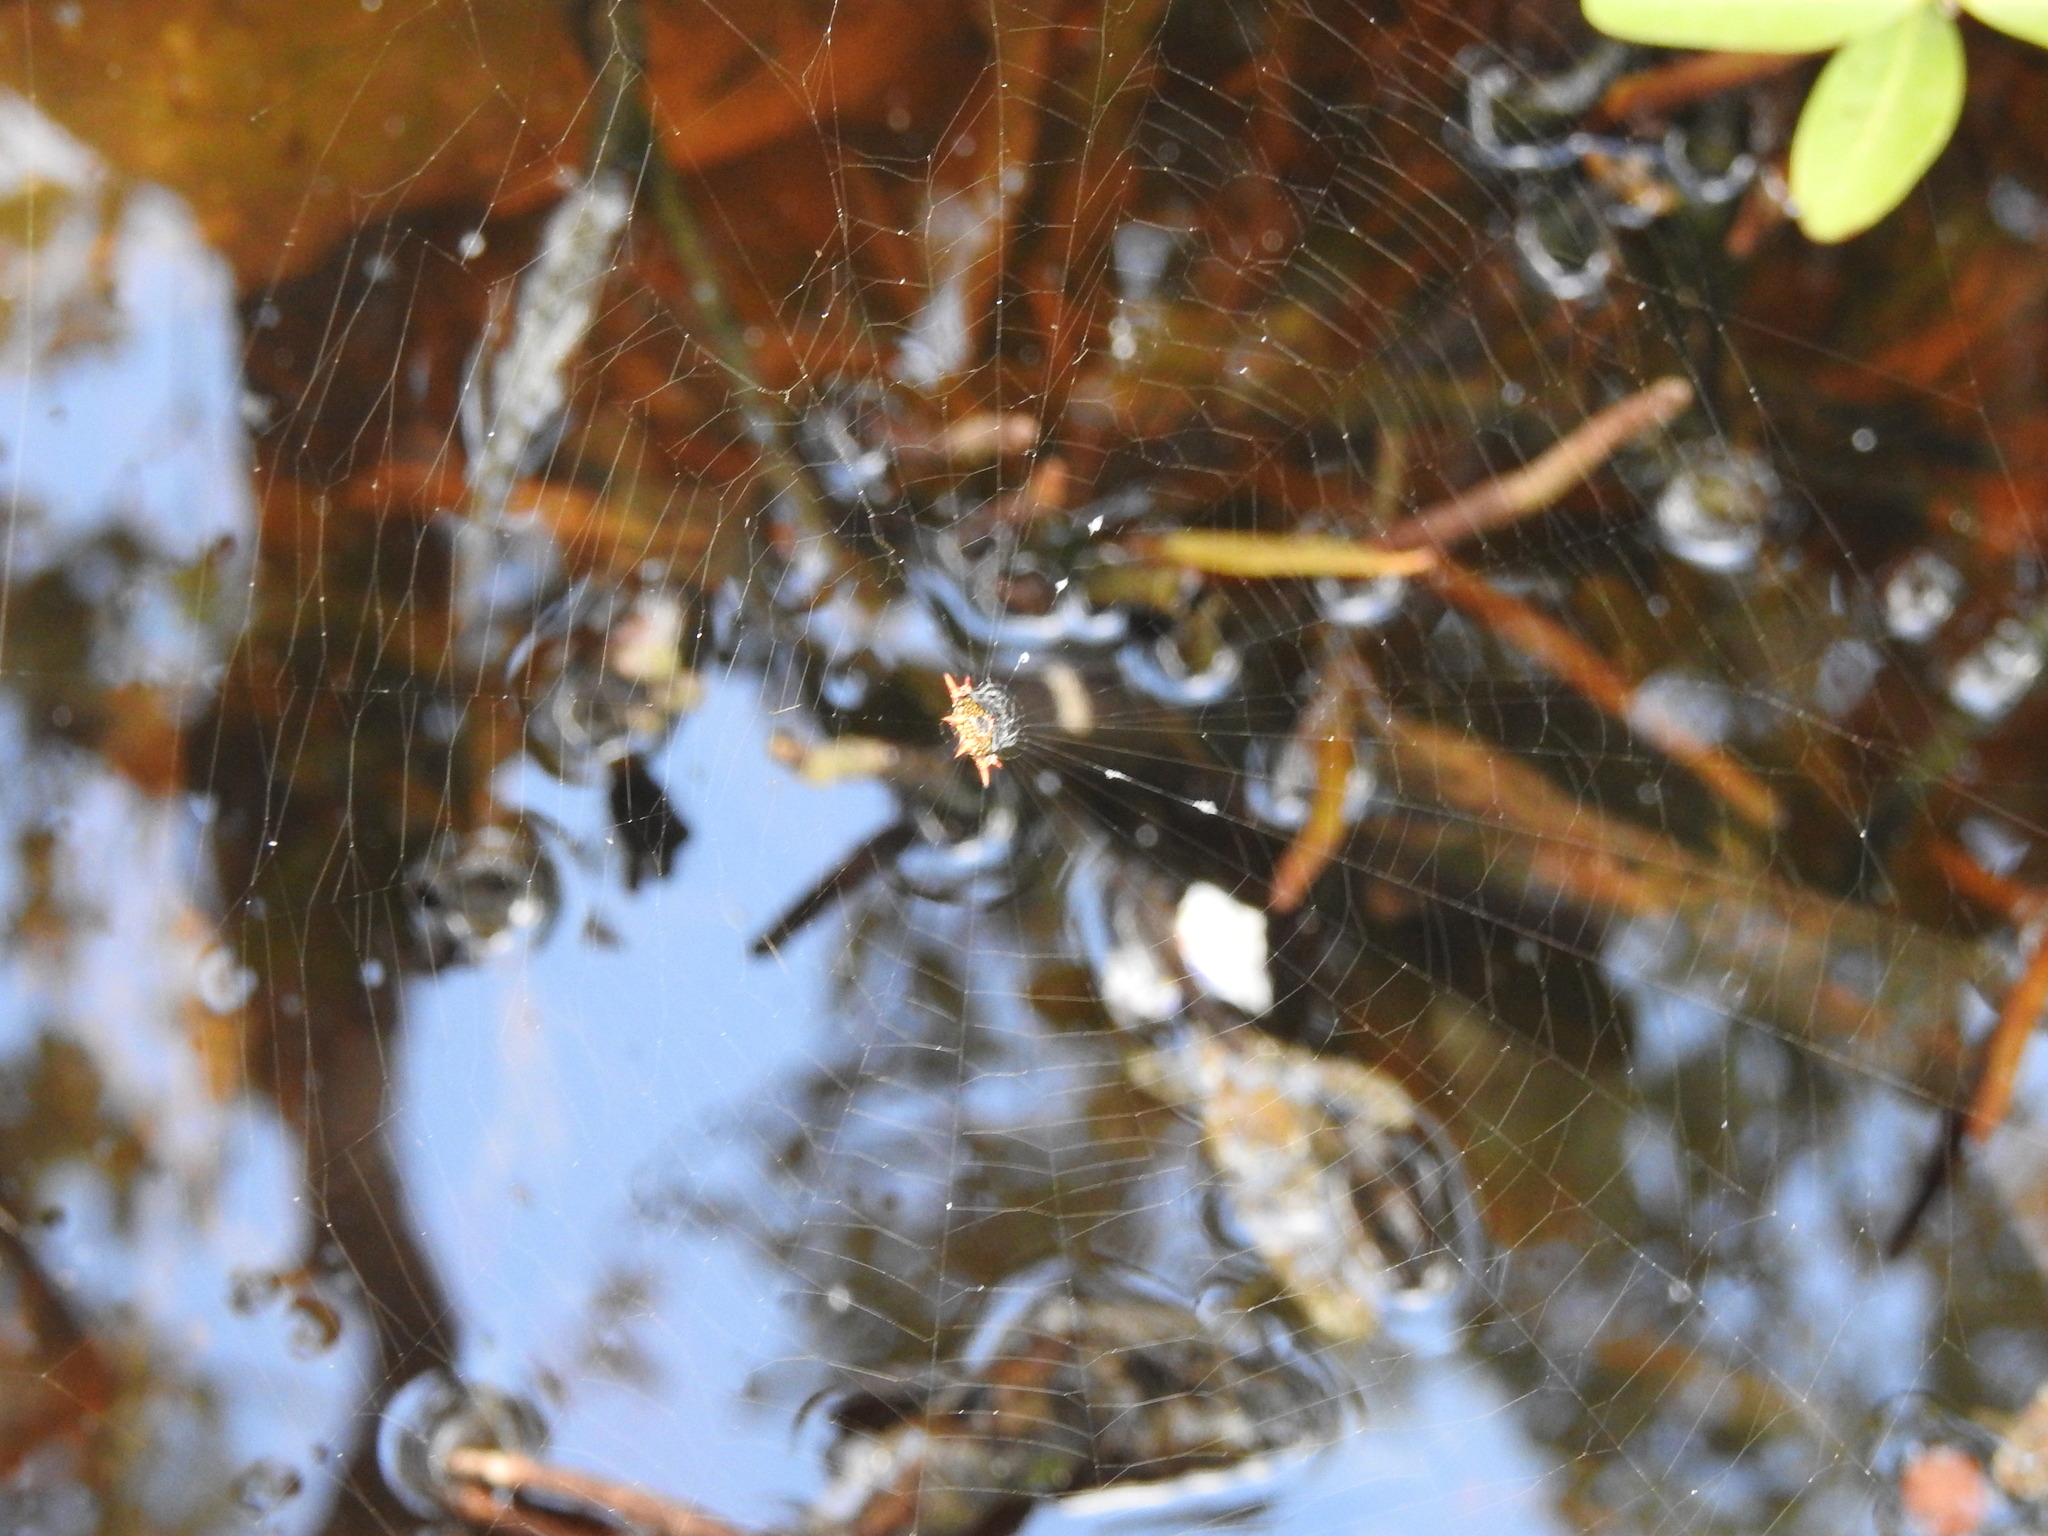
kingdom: Animalia
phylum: Arthropoda
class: Arachnida
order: Araneae
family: Araneidae
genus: Gasteracantha
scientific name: Gasteracantha cancriformis
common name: Orb weavers
